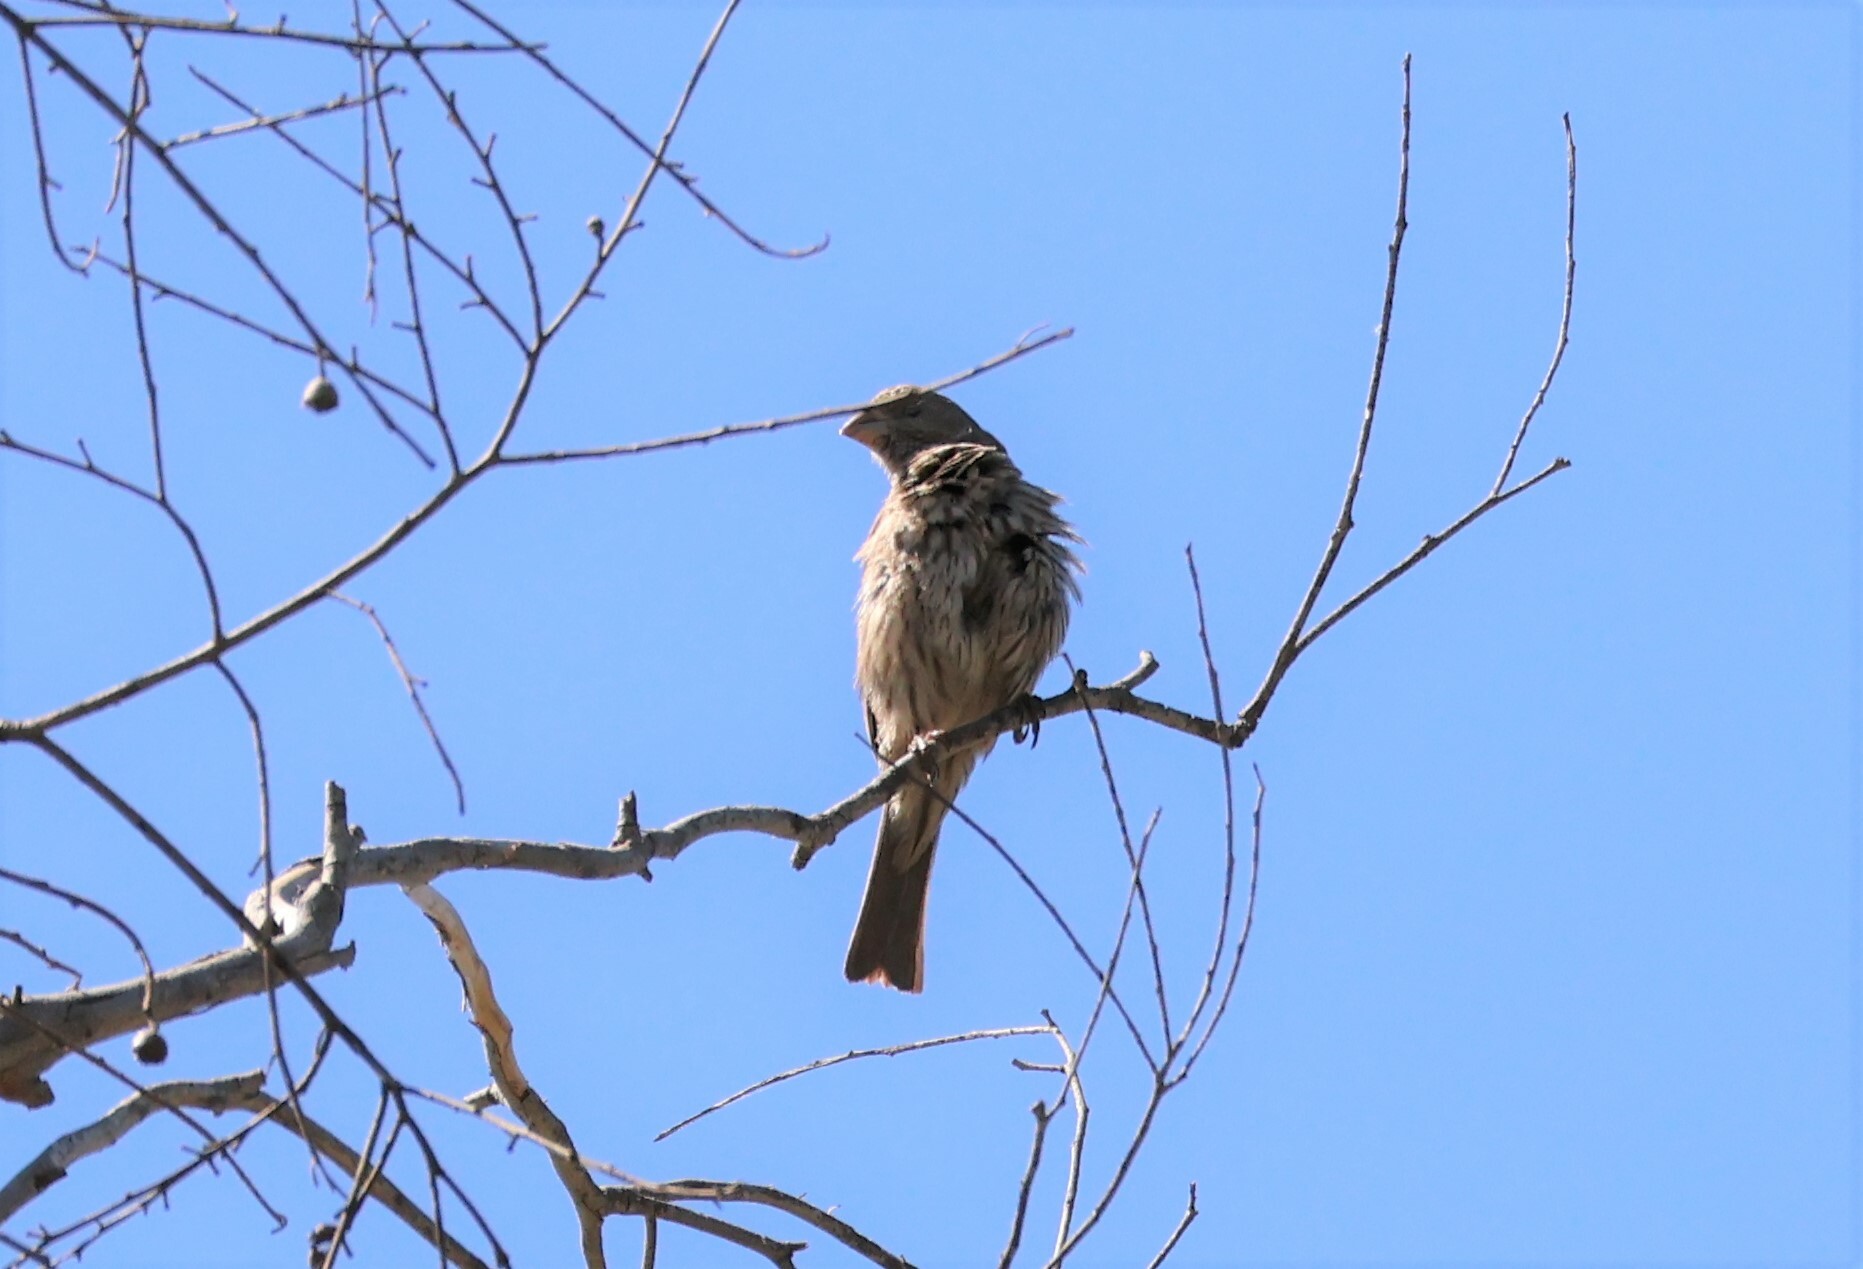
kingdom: Animalia
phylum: Chordata
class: Aves
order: Passeriformes
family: Fringillidae
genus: Haemorhous
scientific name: Haemorhous mexicanus
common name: House finch
